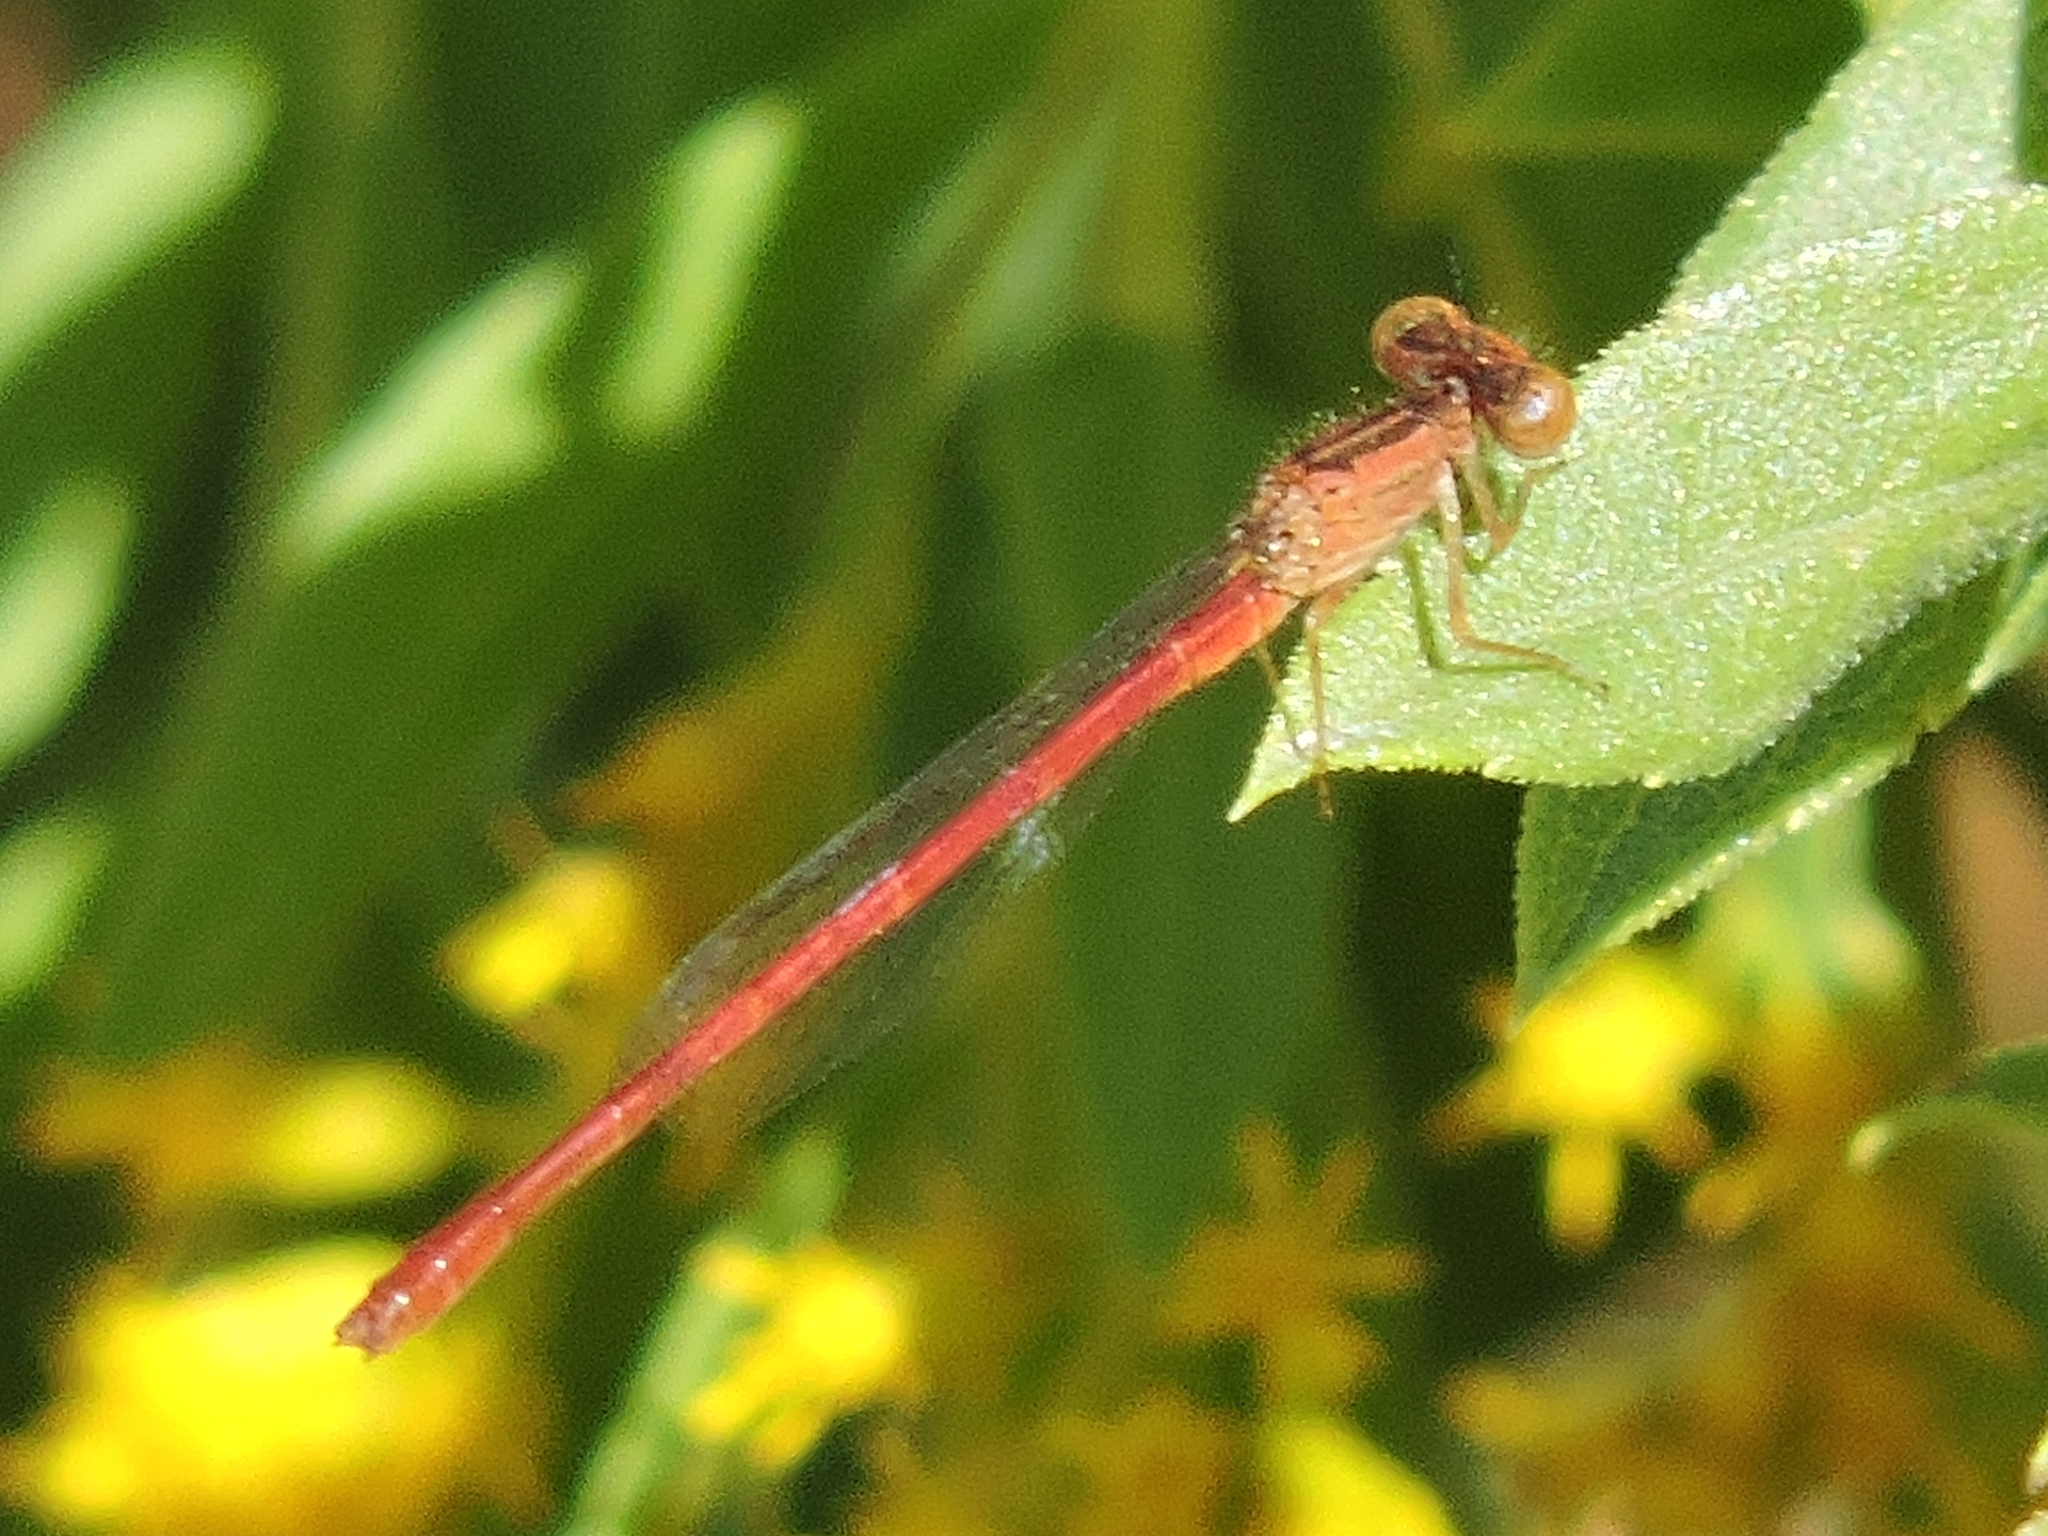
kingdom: Animalia
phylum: Arthropoda
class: Insecta
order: Odonata
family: Coenagrionidae
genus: Telebasis
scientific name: Telebasis salva
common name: Desert firetail
